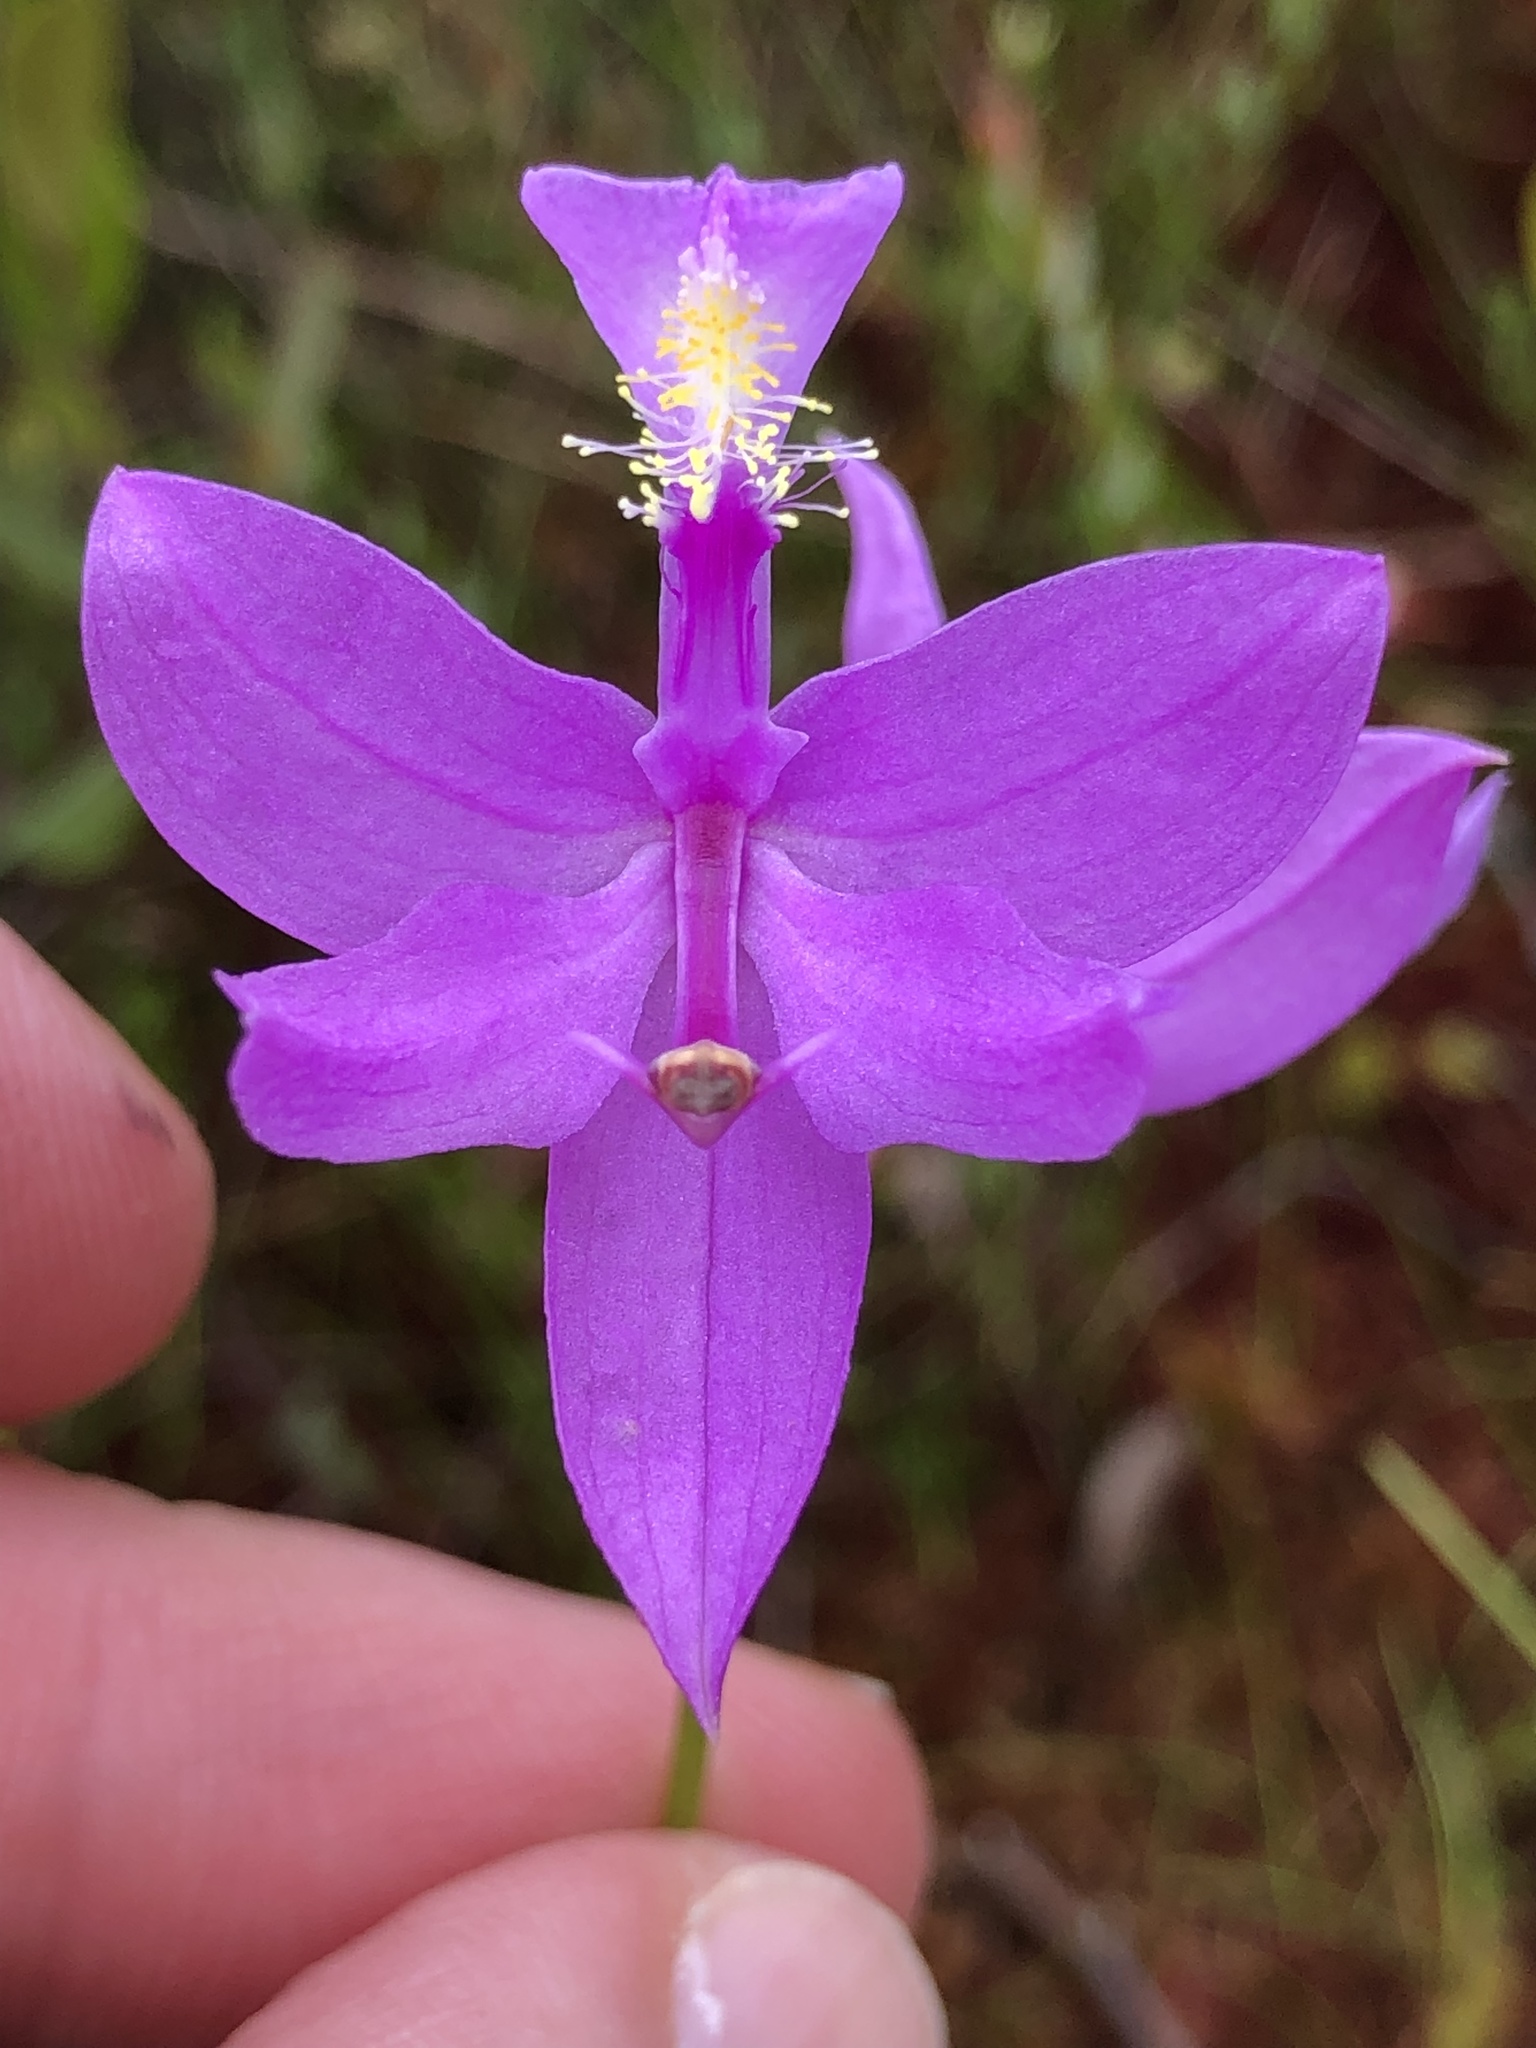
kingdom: Plantae
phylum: Tracheophyta
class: Liliopsida
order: Asparagales
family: Orchidaceae
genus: Calopogon
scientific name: Calopogon tuberosus
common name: Grass-pink
